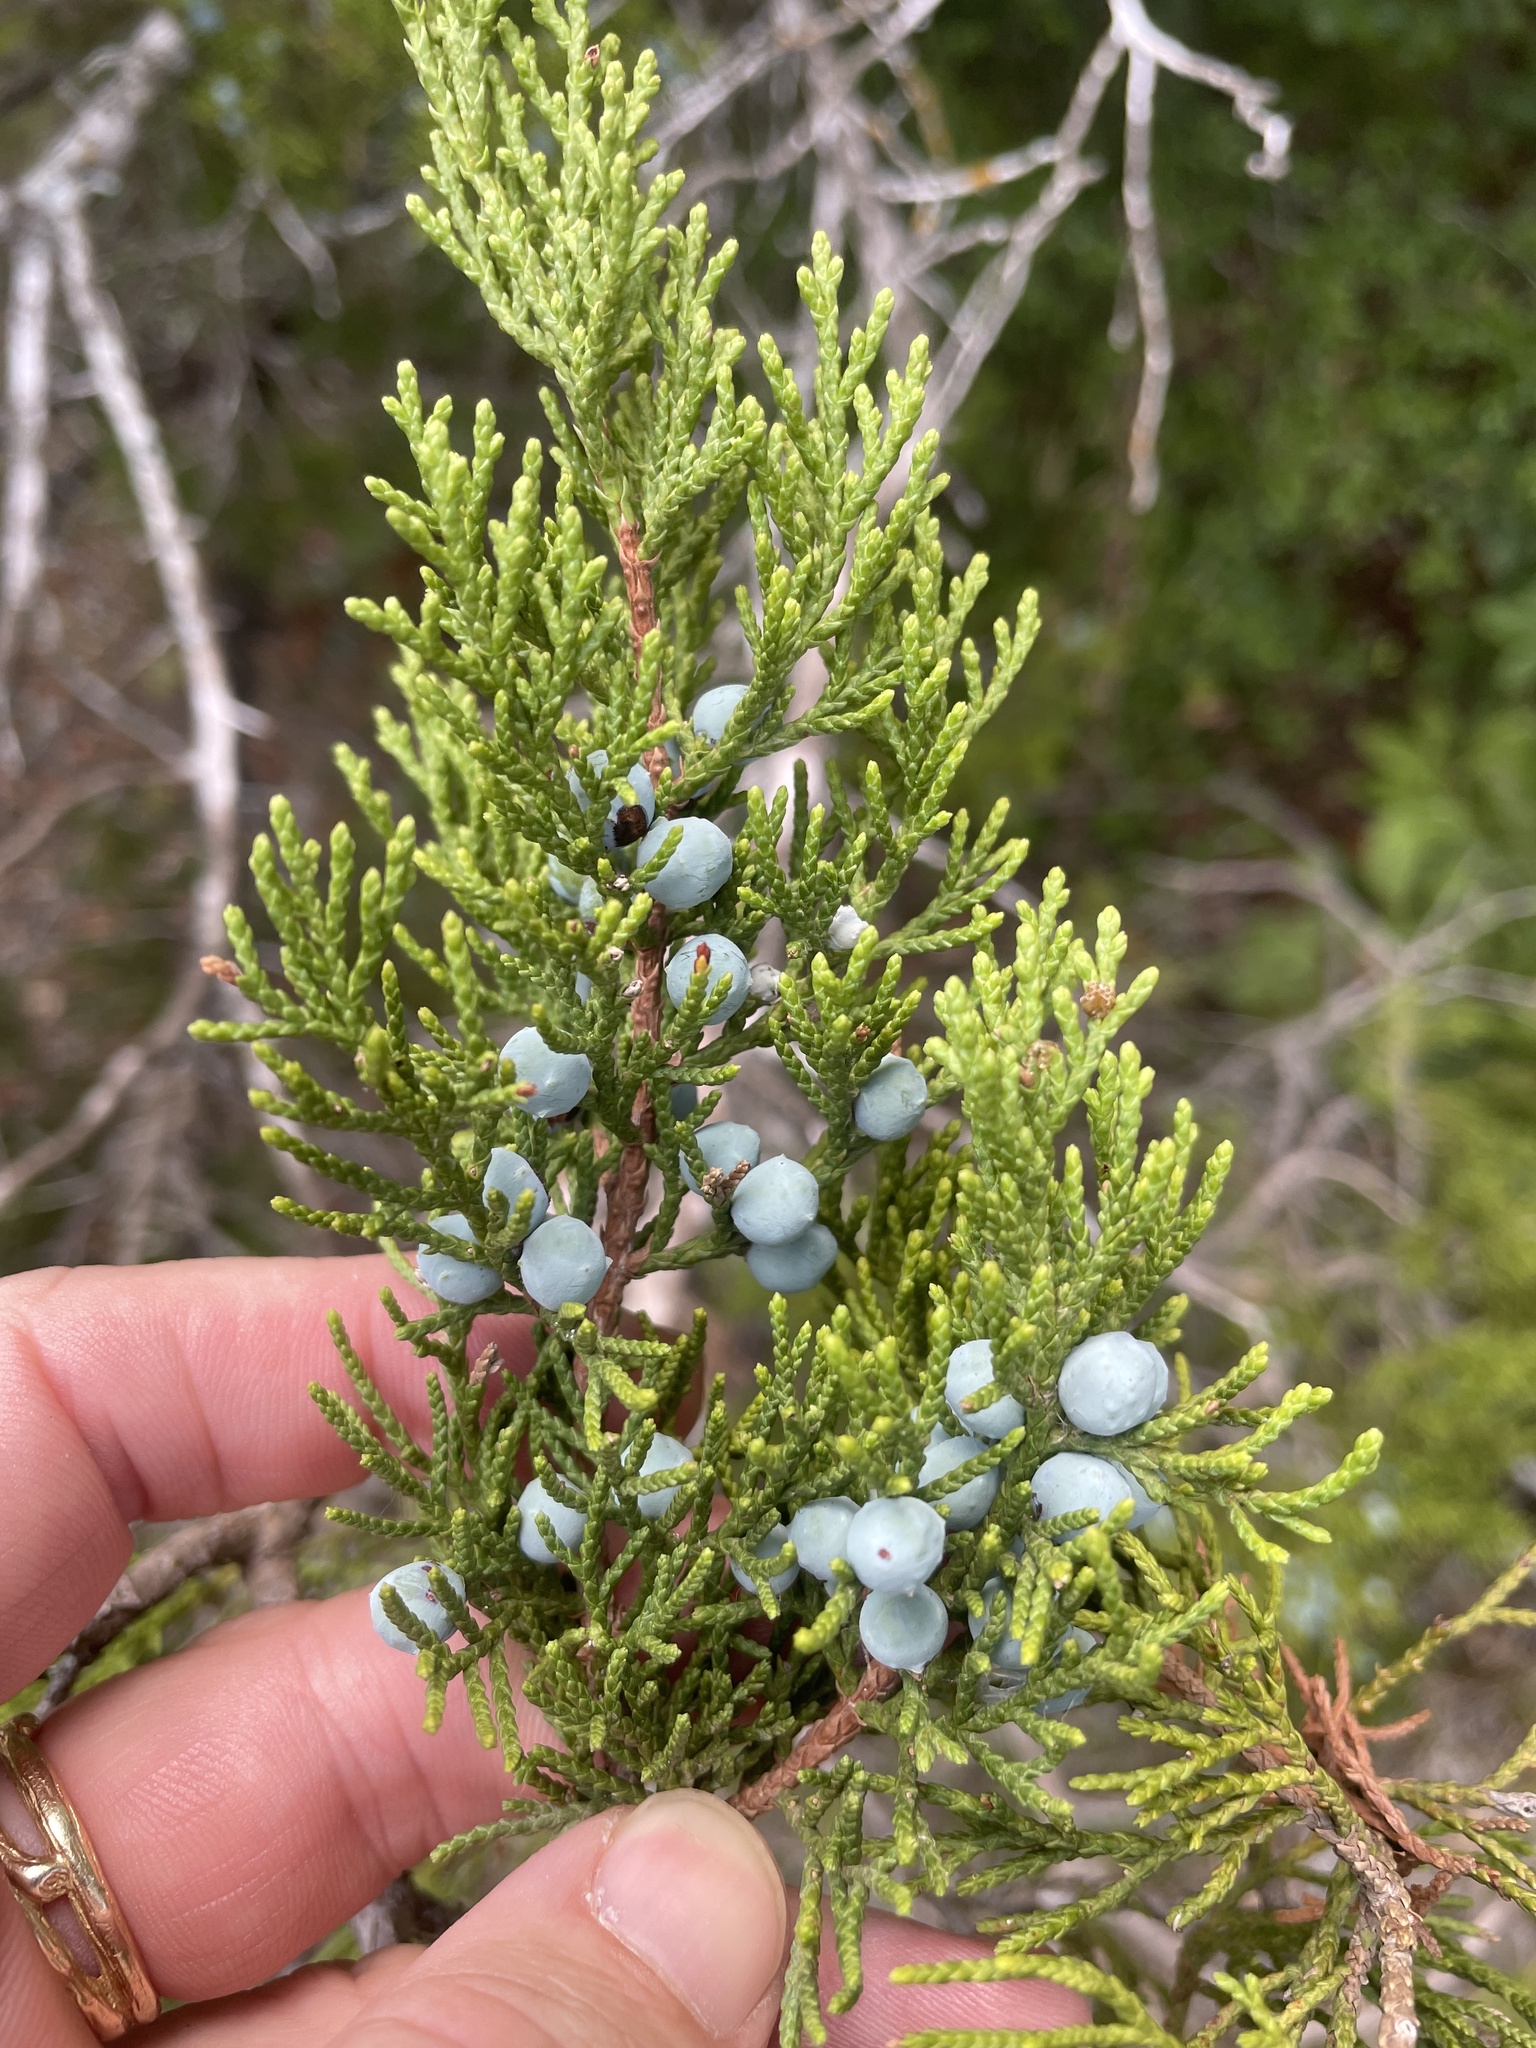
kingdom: Plantae
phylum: Tracheophyta
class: Pinopsida
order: Pinales
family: Cupressaceae
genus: Juniperus
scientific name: Juniperus ashei
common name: Mexican juniper
